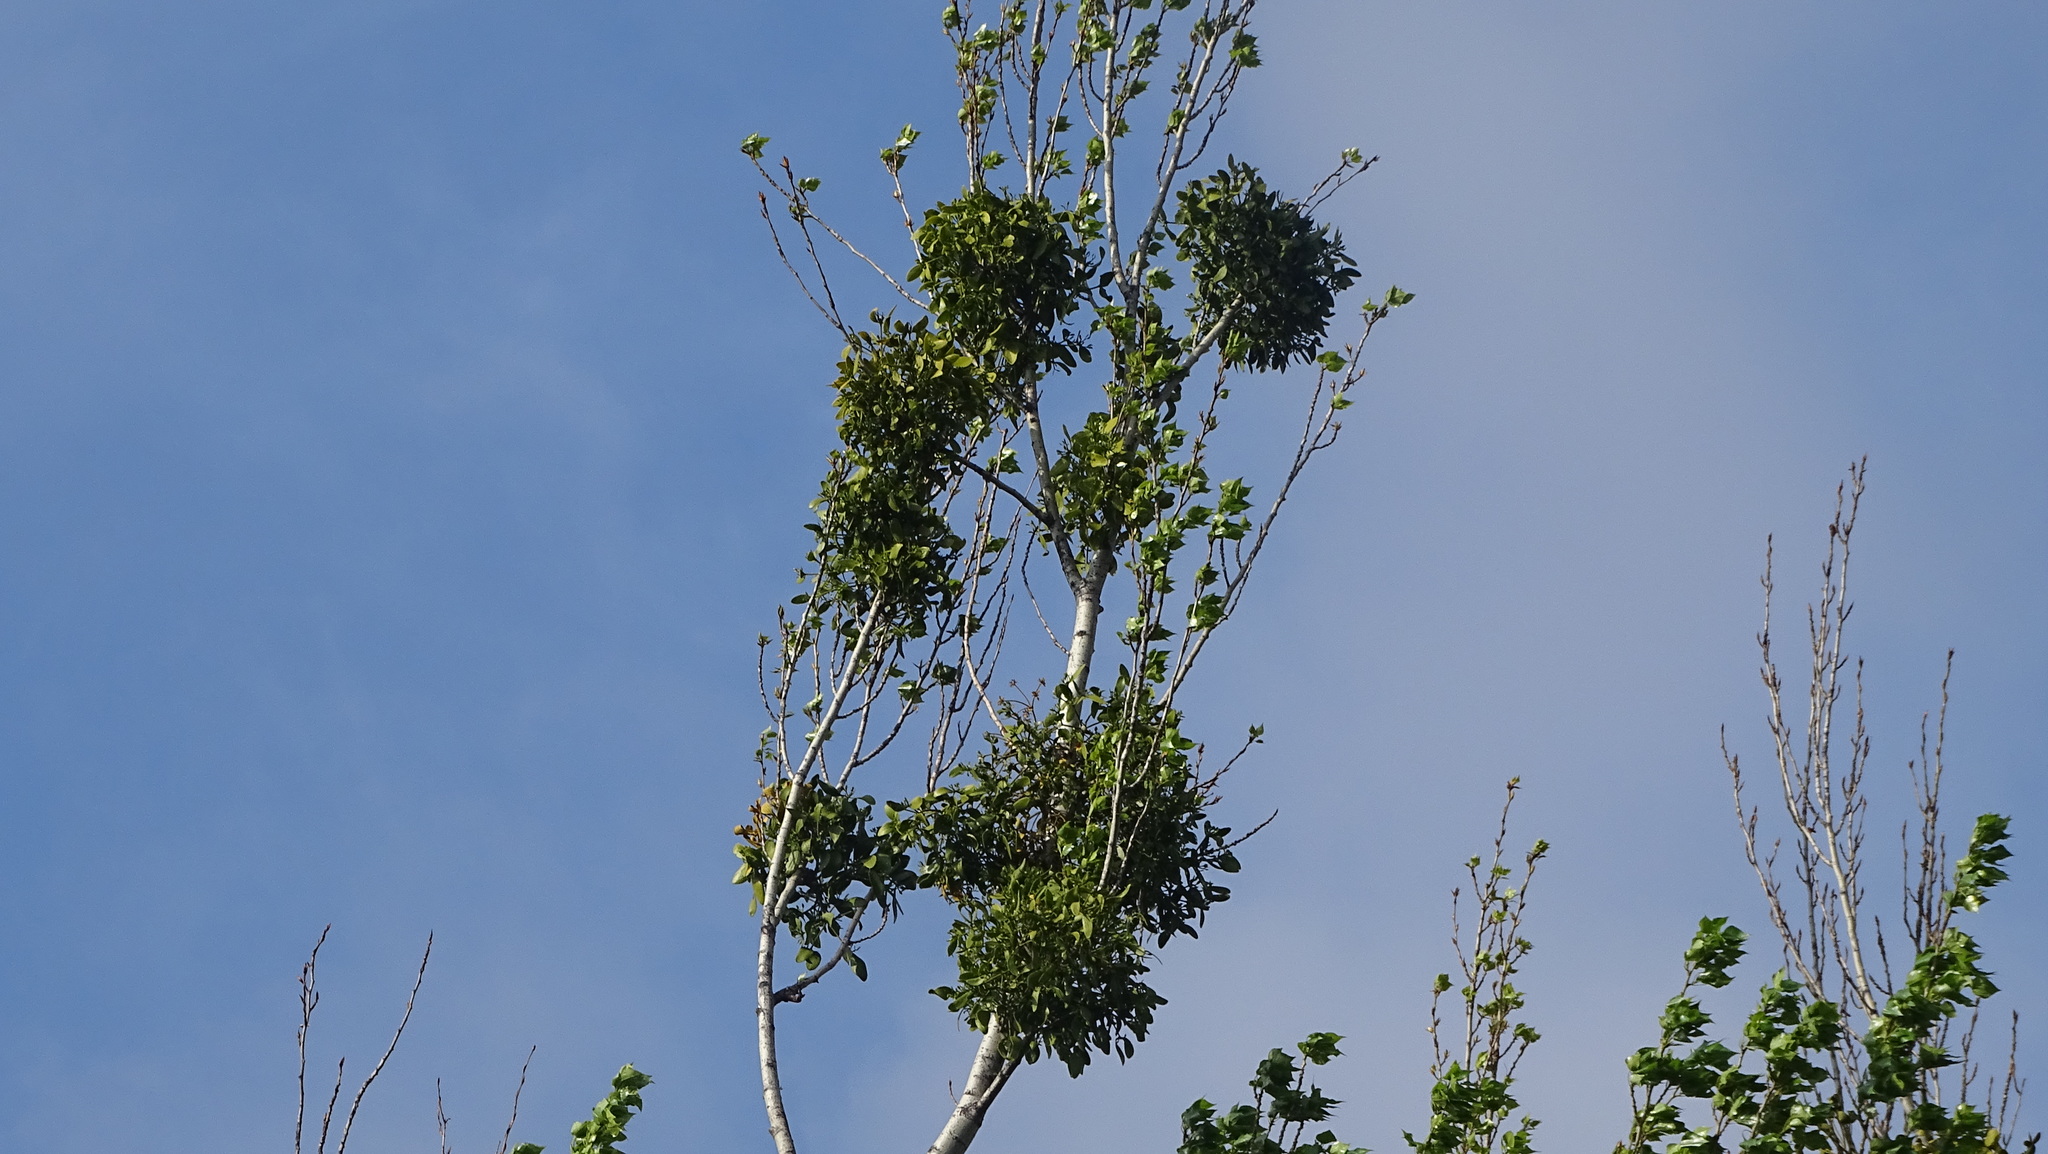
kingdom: Plantae
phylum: Tracheophyta
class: Magnoliopsida
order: Santalales
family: Viscaceae
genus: Viscum
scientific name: Viscum album
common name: Mistletoe
